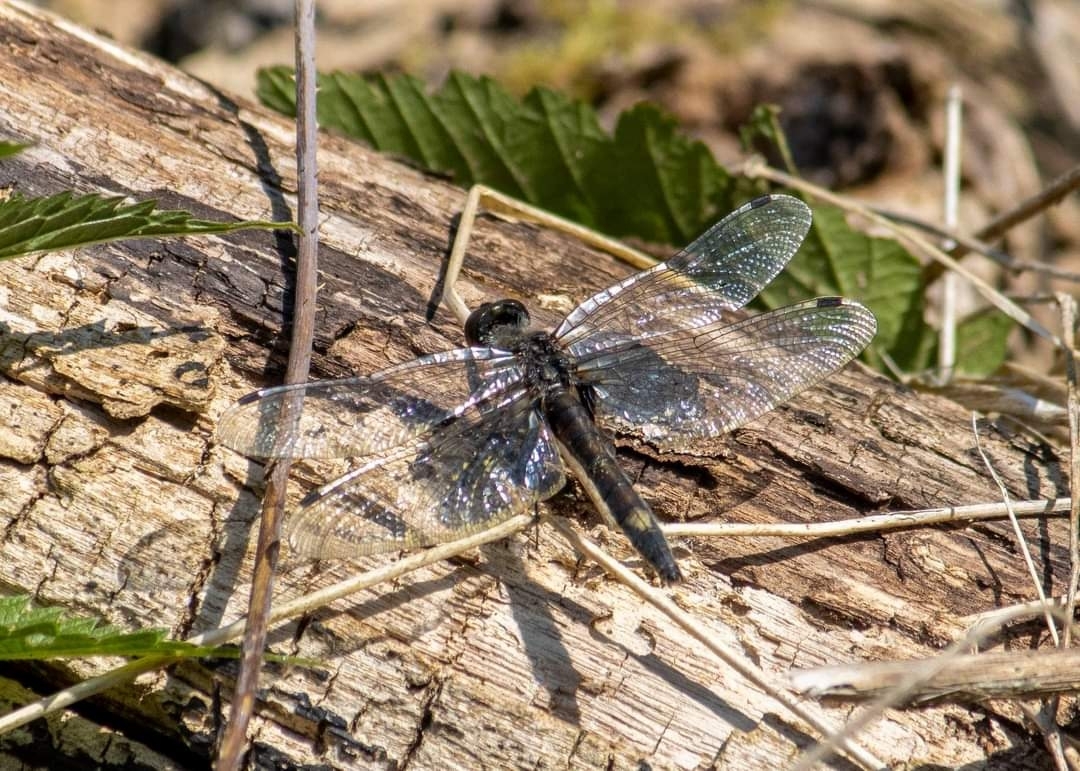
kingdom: Animalia
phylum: Arthropoda
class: Insecta
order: Odonata
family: Libellulidae
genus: Leucorrhinia
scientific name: Leucorrhinia pectoralis
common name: Yellow-spotted whiteface
